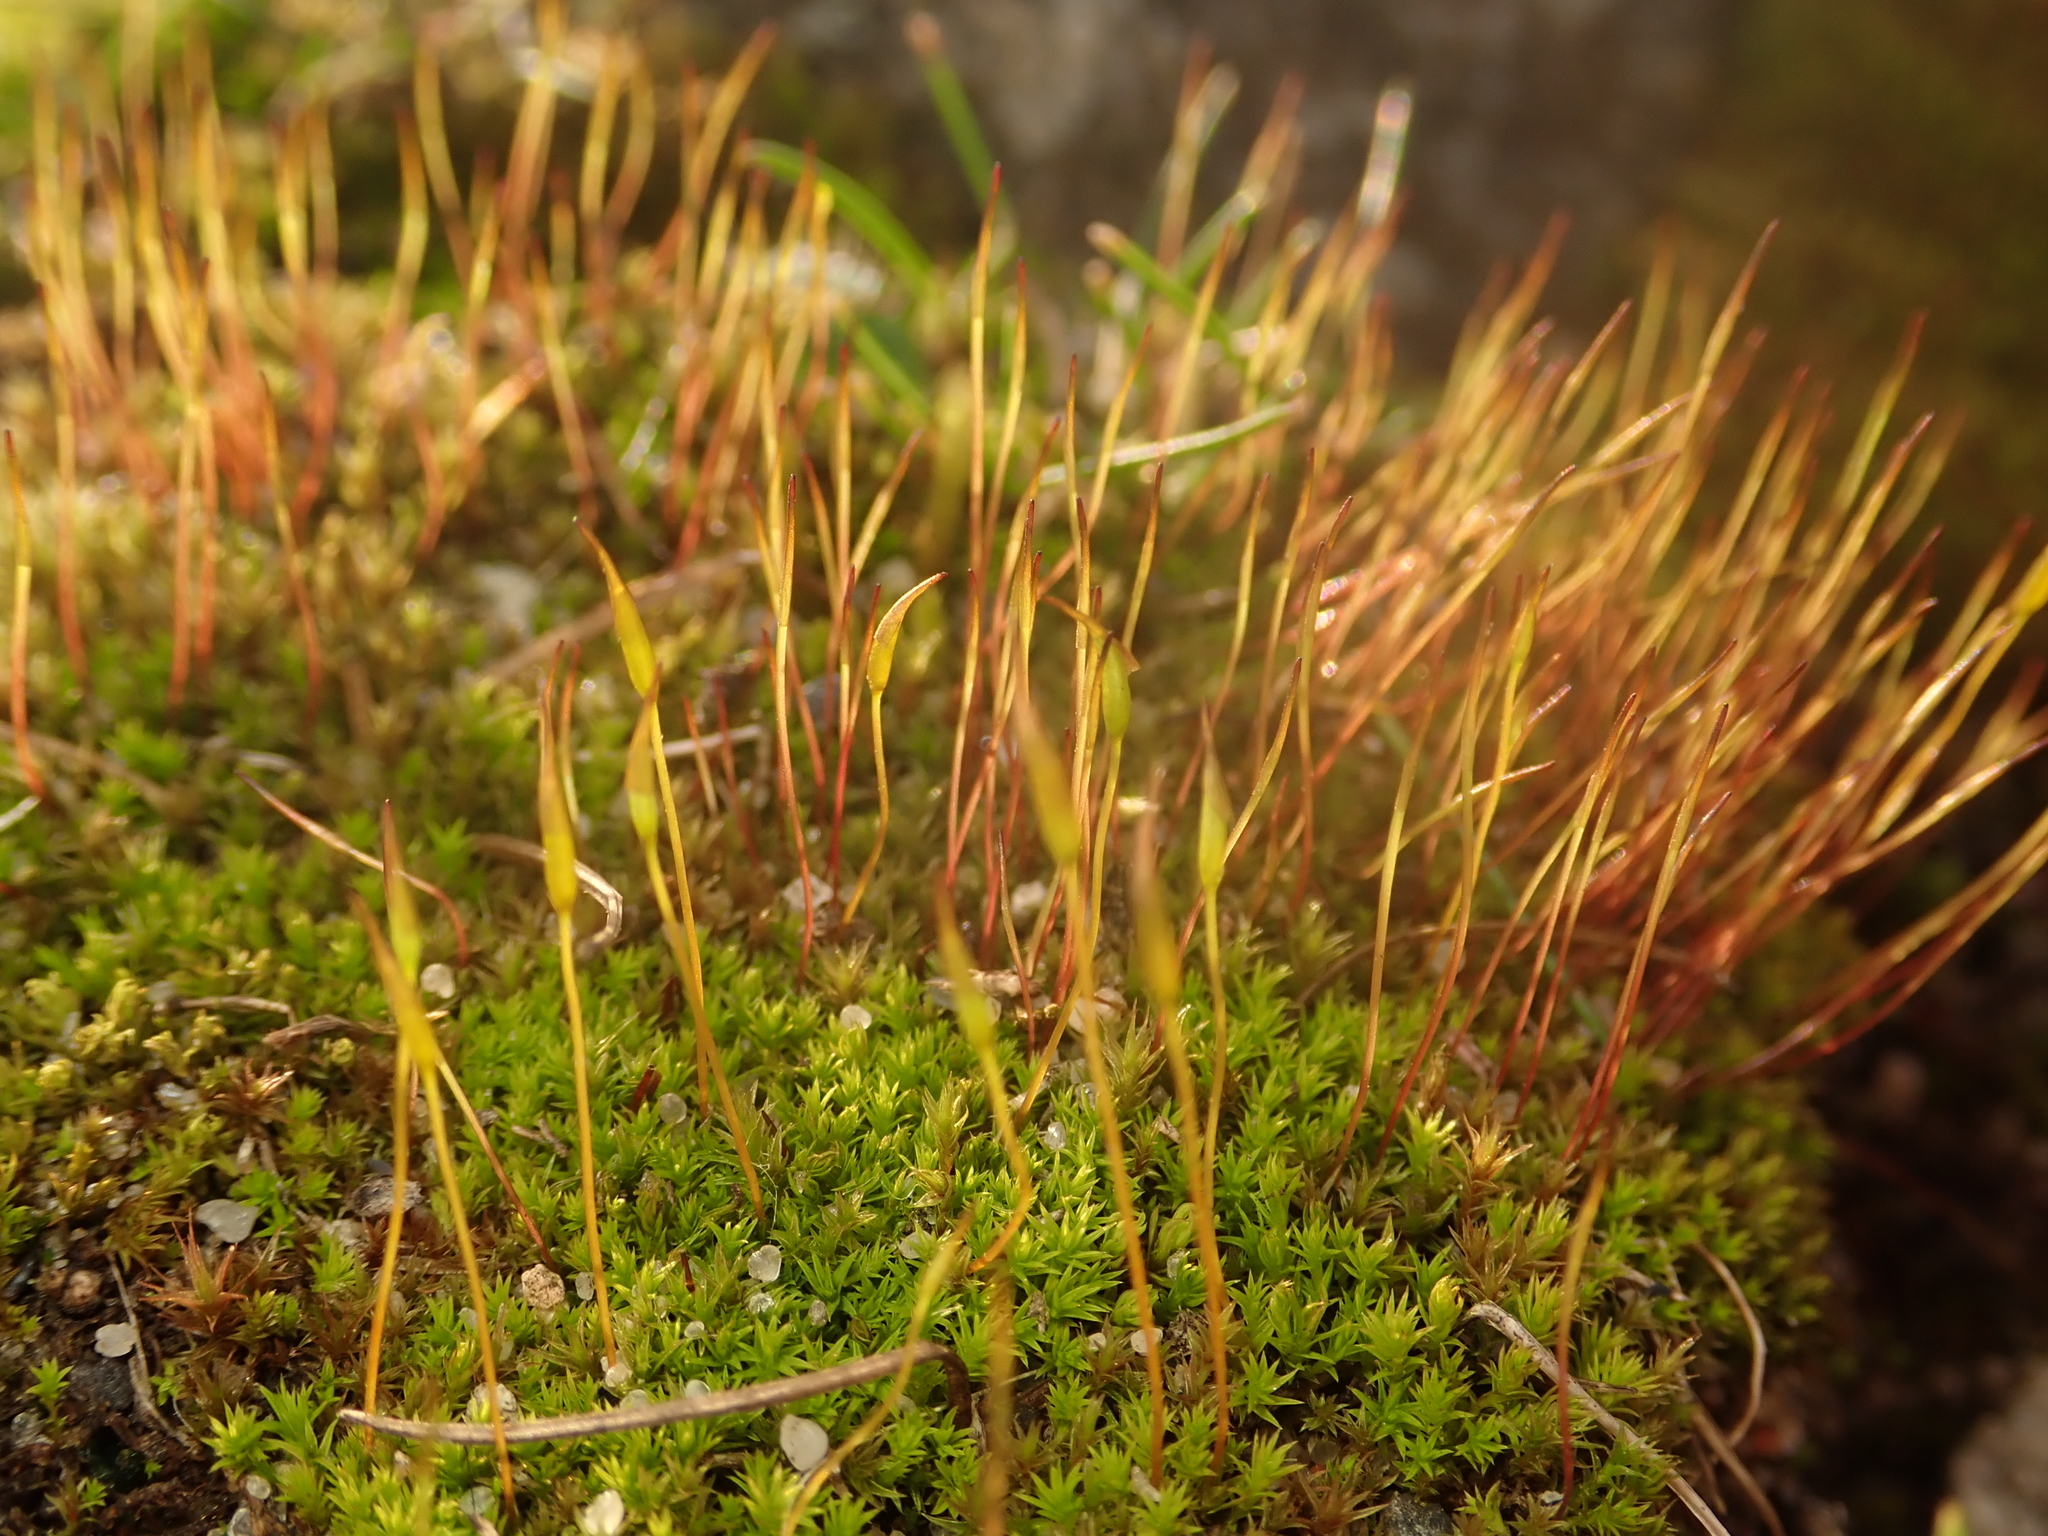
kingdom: Plantae
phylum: Bryophyta
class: Bryopsida
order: Dicranales
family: Ditrichaceae
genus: Ceratodon
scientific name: Ceratodon purpureus
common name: Redshank
